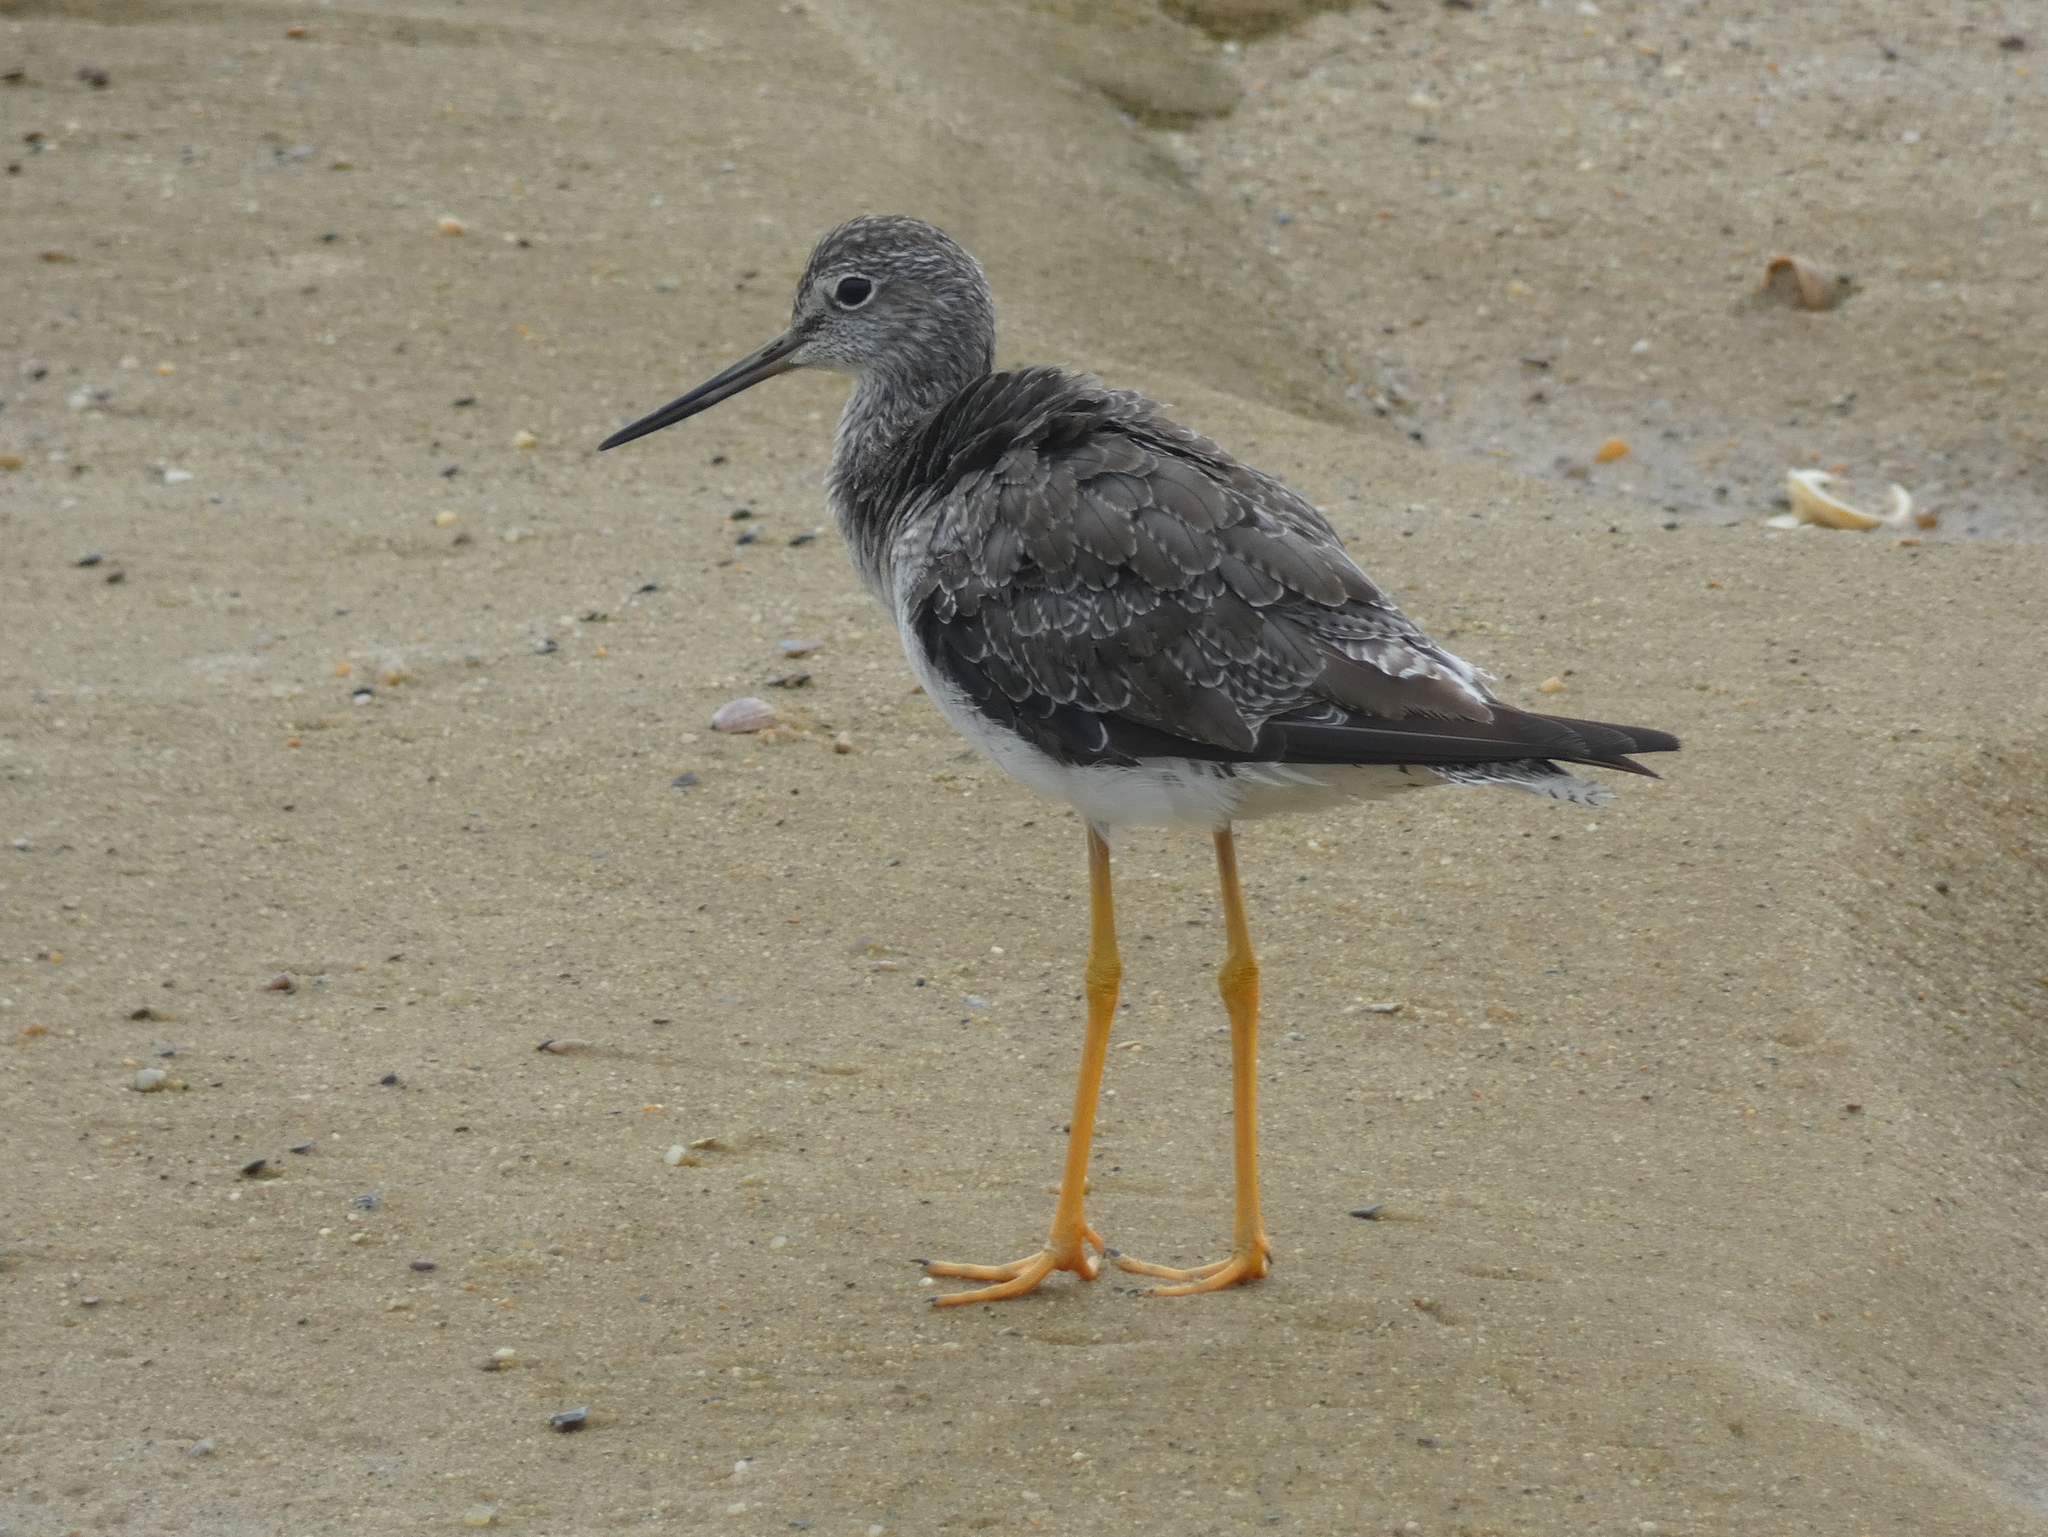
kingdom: Animalia
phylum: Chordata
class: Aves
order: Charadriiformes
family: Scolopacidae
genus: Tringa
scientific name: Tringa melanoleuca
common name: Greater yellowlegs
